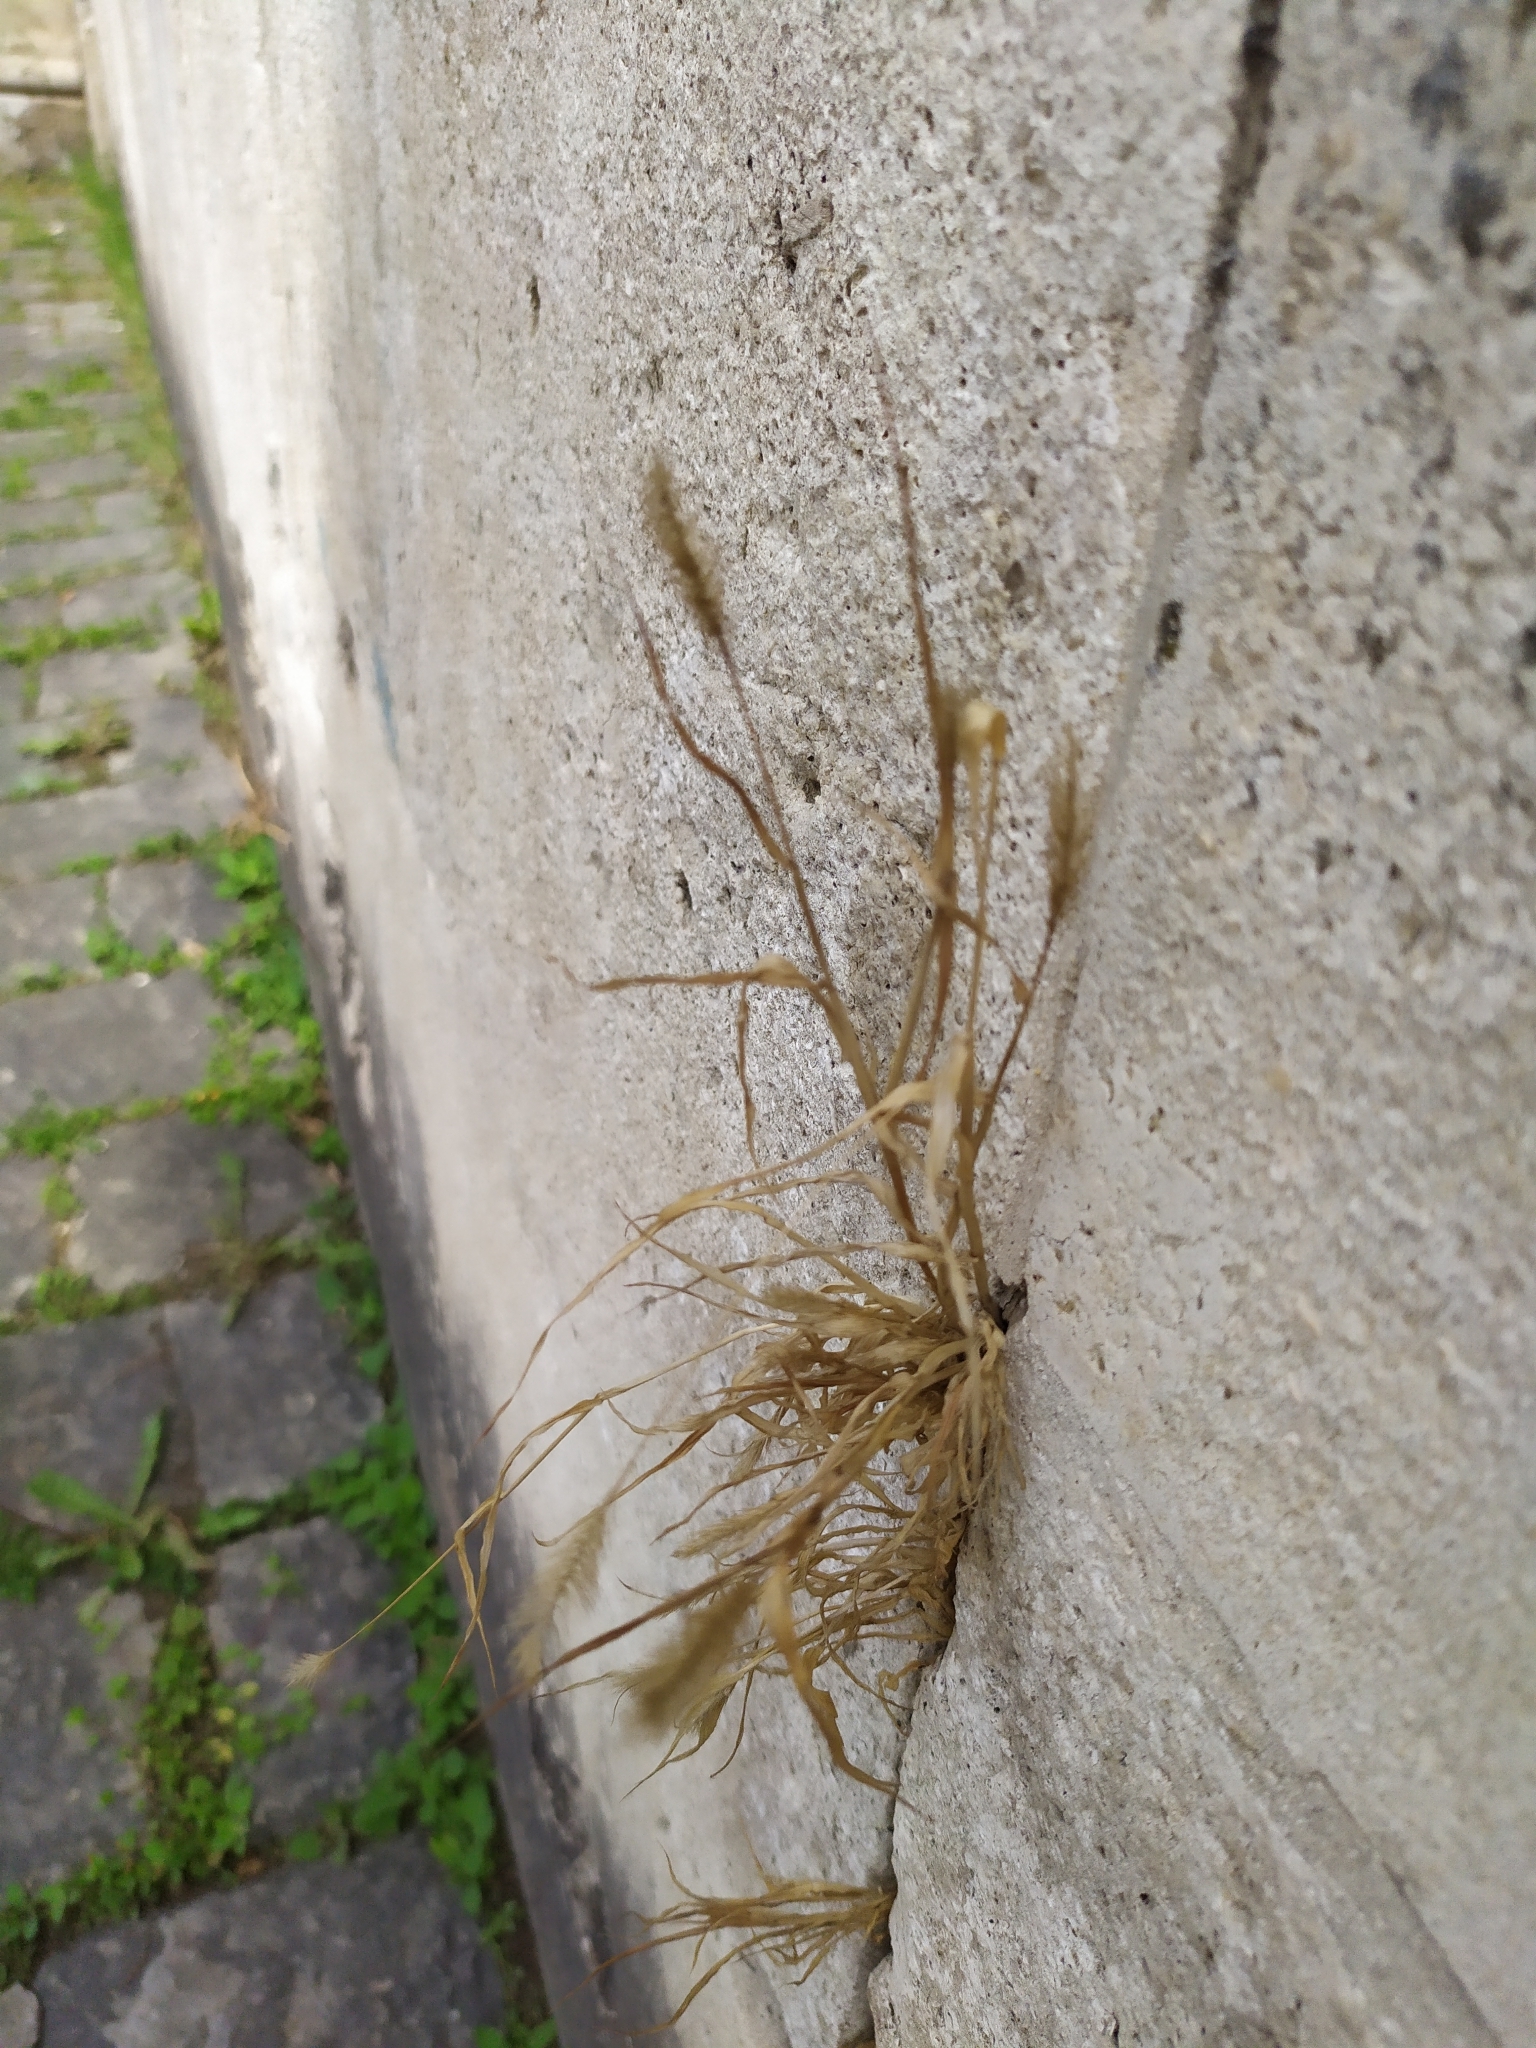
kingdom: Plantae
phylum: Tracheophyta
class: Liliopsida
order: Poales
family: Poaceae
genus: Setaria
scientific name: Setaria viridis
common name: Green bristlegrass
